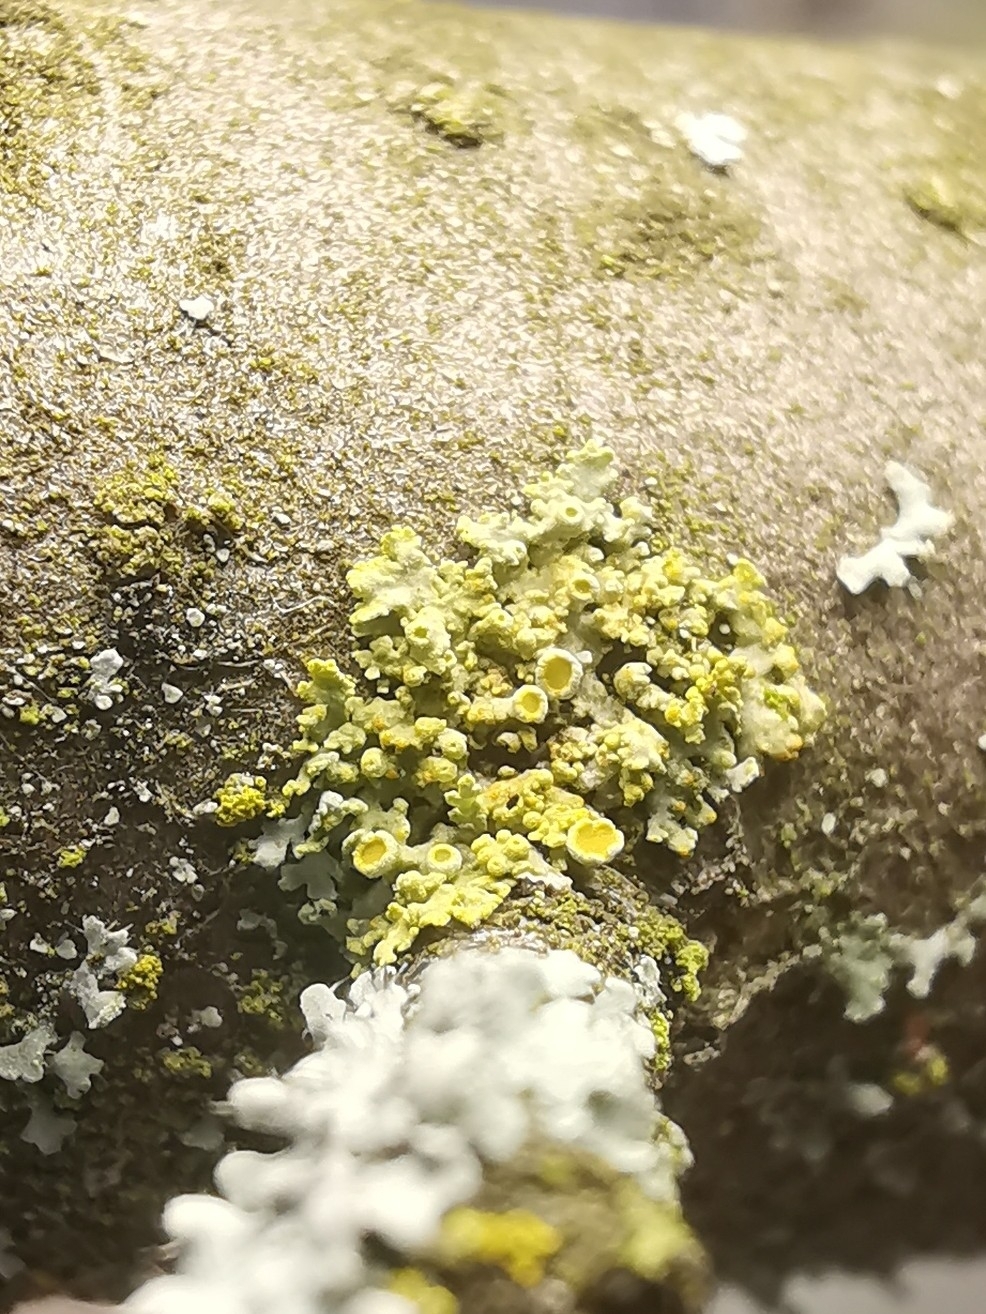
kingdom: Fungi
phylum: Ascomycota
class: Lecanoromycetes
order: Teloschistales
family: Teloschistaceae
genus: Polycauliona
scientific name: Polycauliona polycarpa
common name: Pin-cushion sunburst lichen
